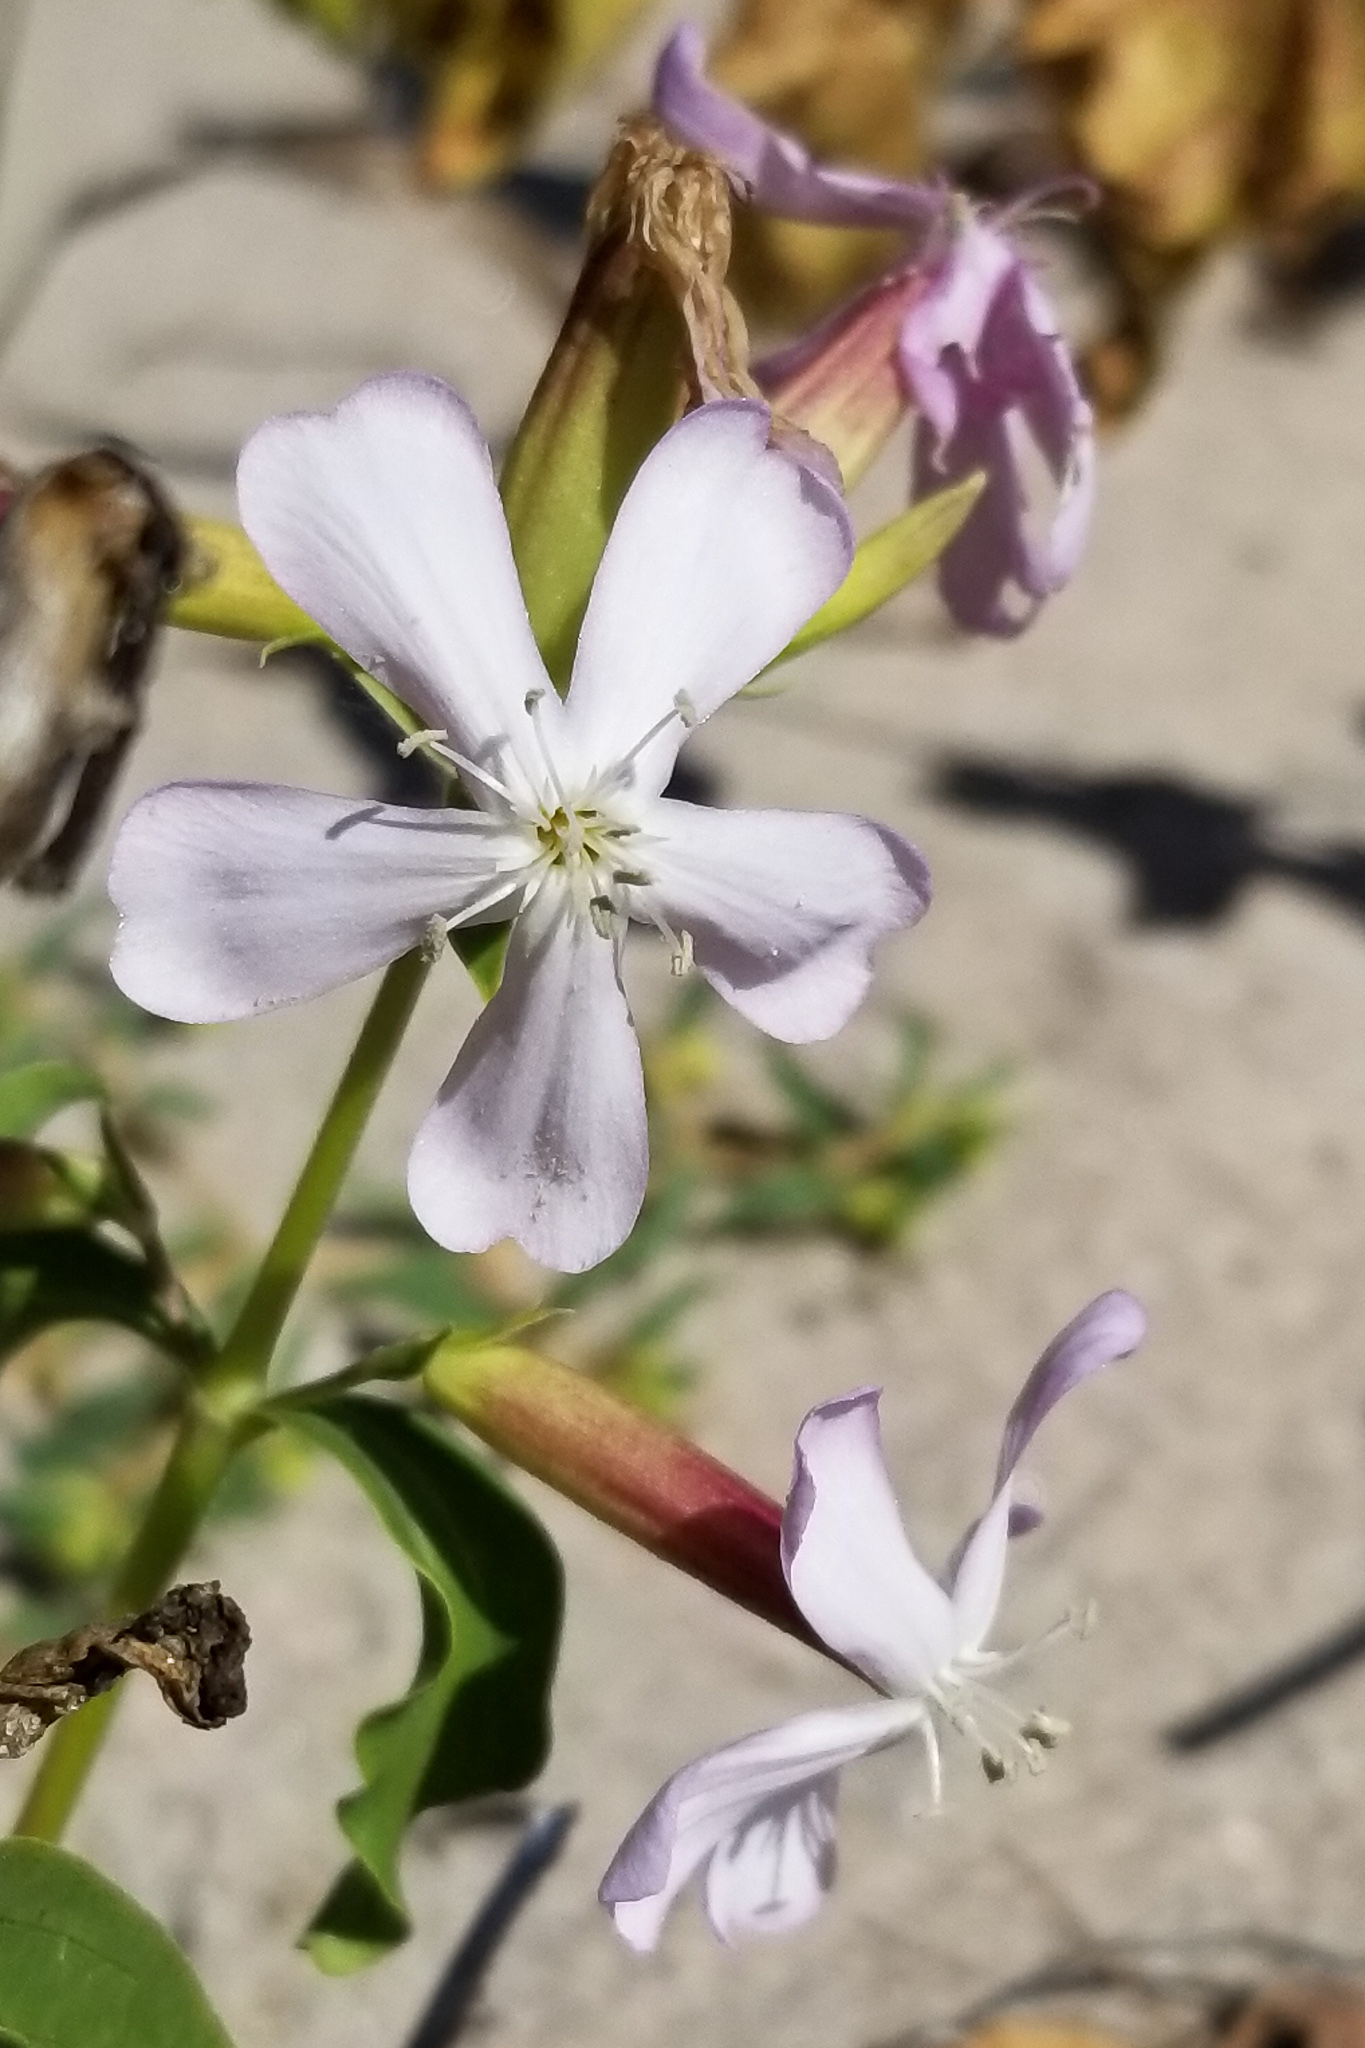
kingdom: Plantae
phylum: Tracheophyta
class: Magnoliopsida
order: Caryophyllales
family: Caryophyllaceae
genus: Saponaria
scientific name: Saponaria officinalis
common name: Soapwort
